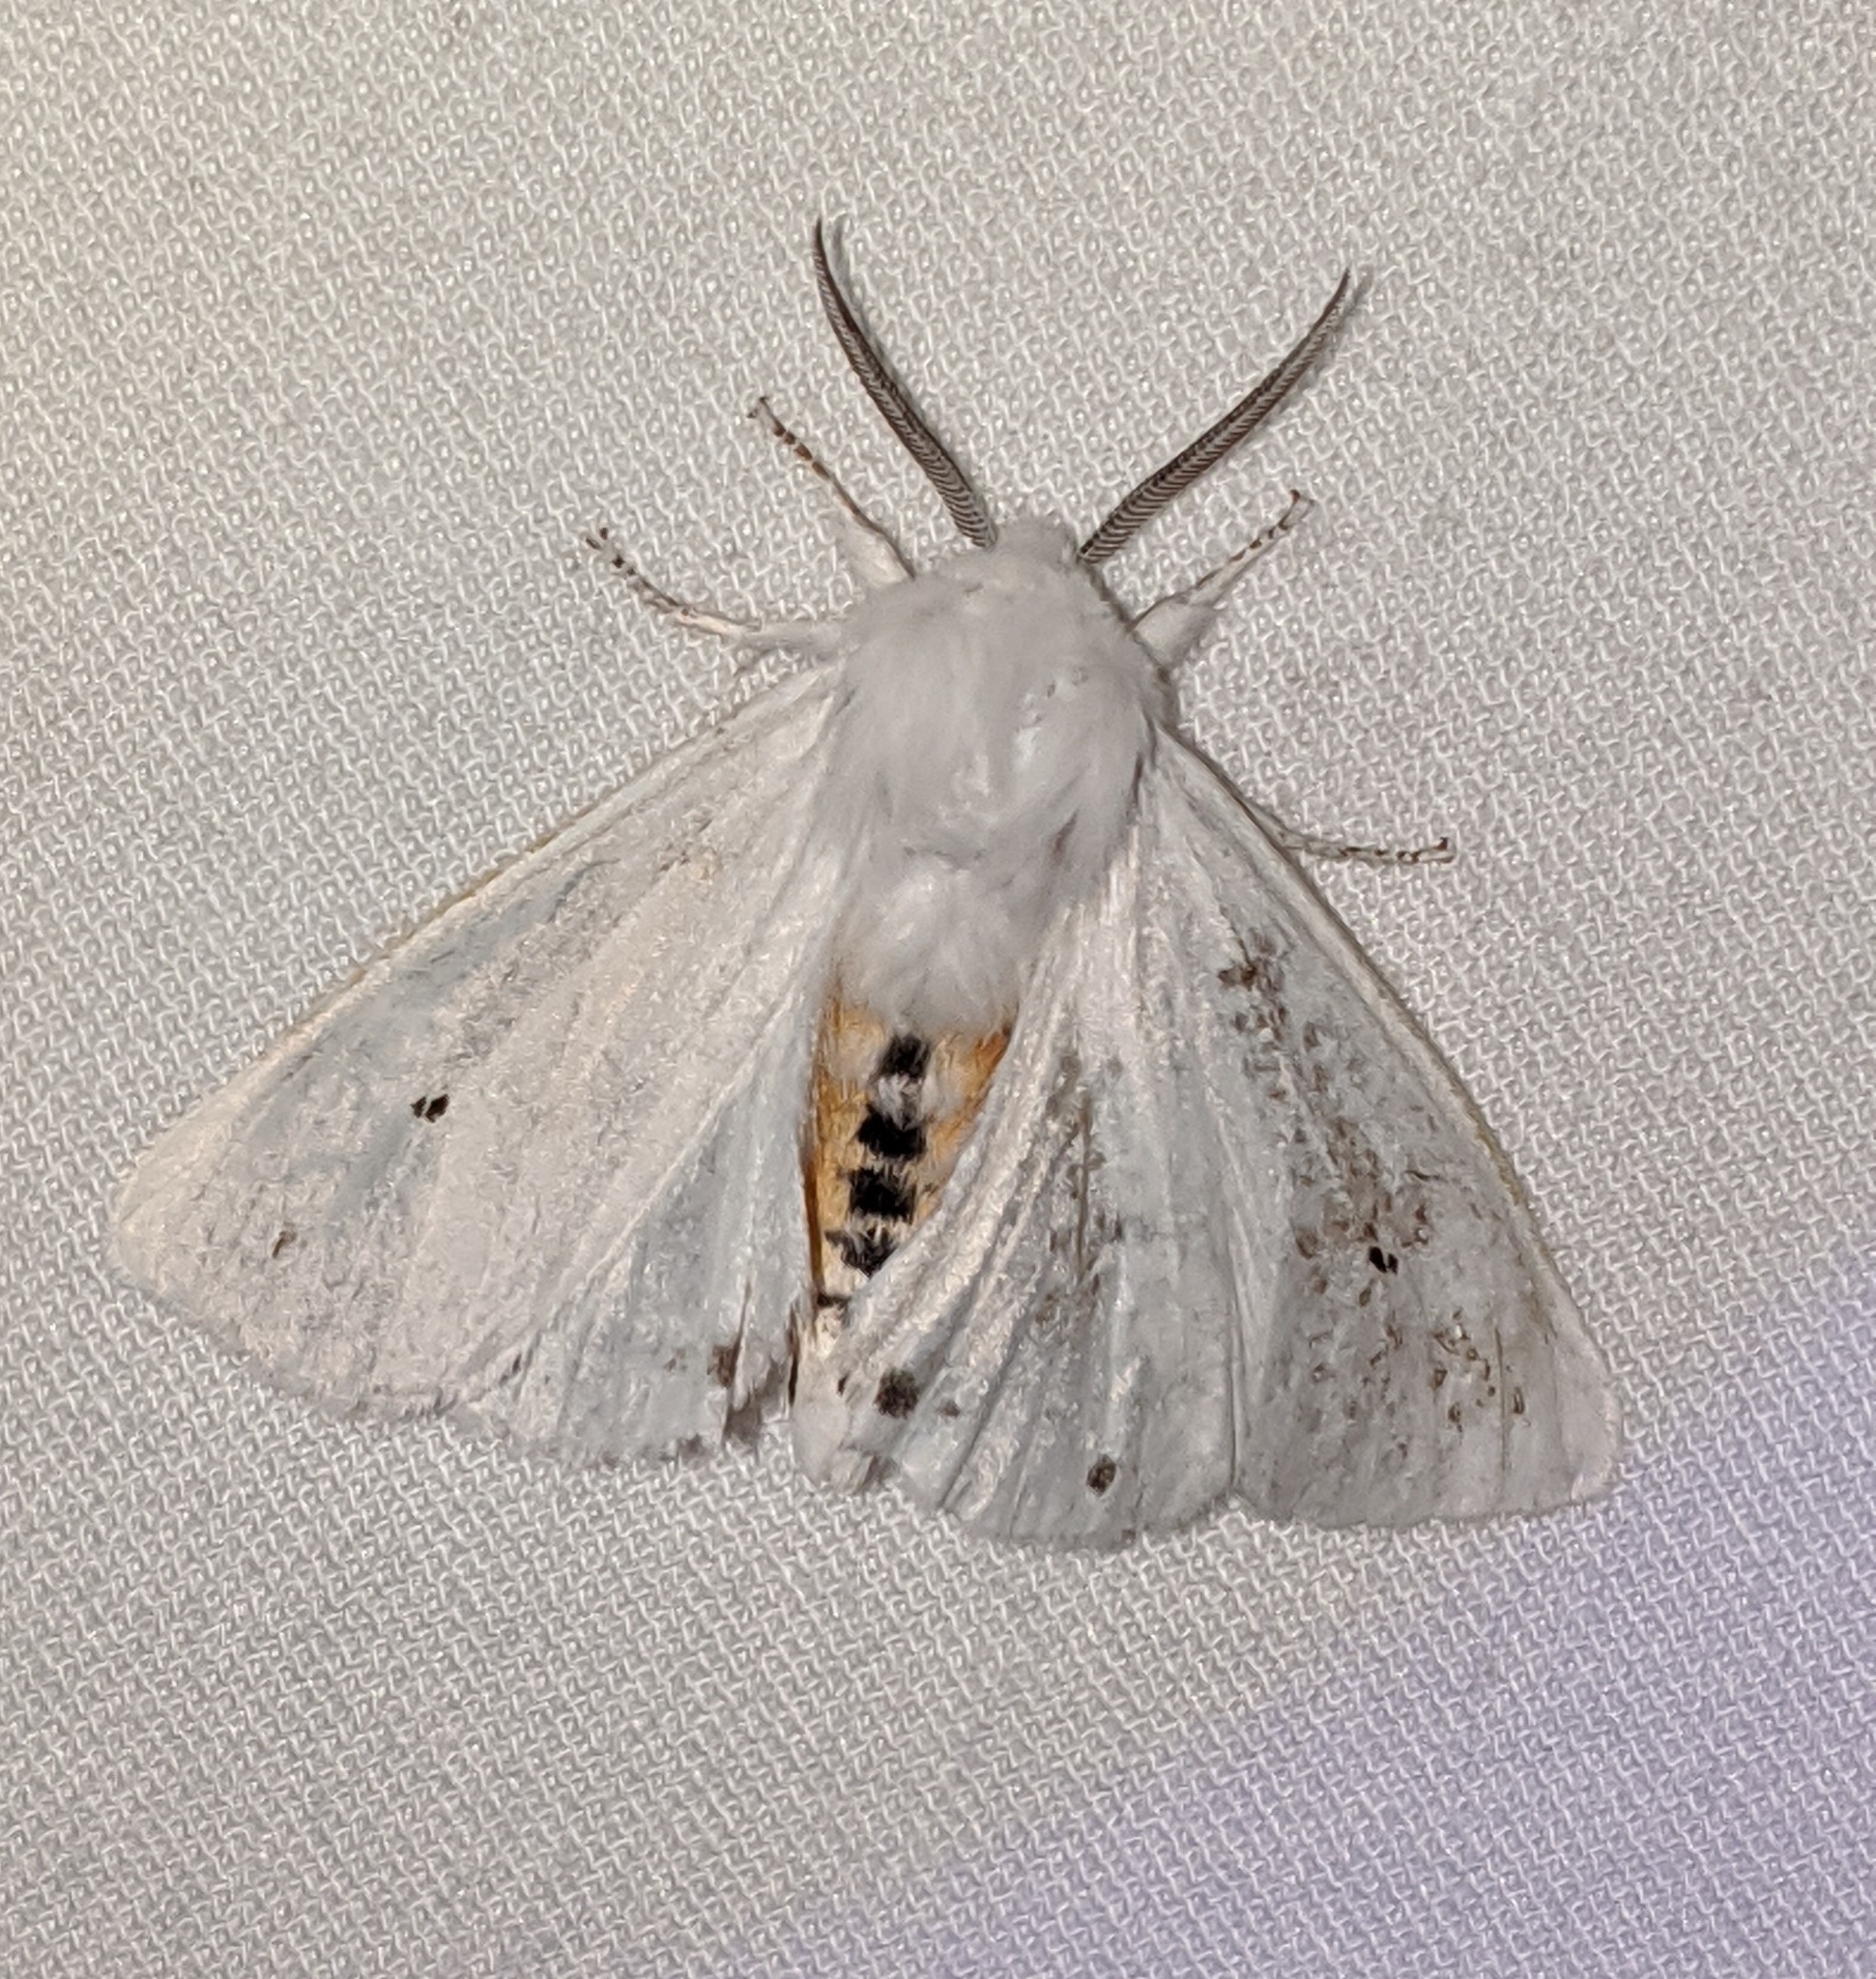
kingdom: Animalia
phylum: Arthropoda
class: Insecta
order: Lepidoptera
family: Erebidae
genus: Spilosoma
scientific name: Spilosoma virginica
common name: Virginia tiger moth
